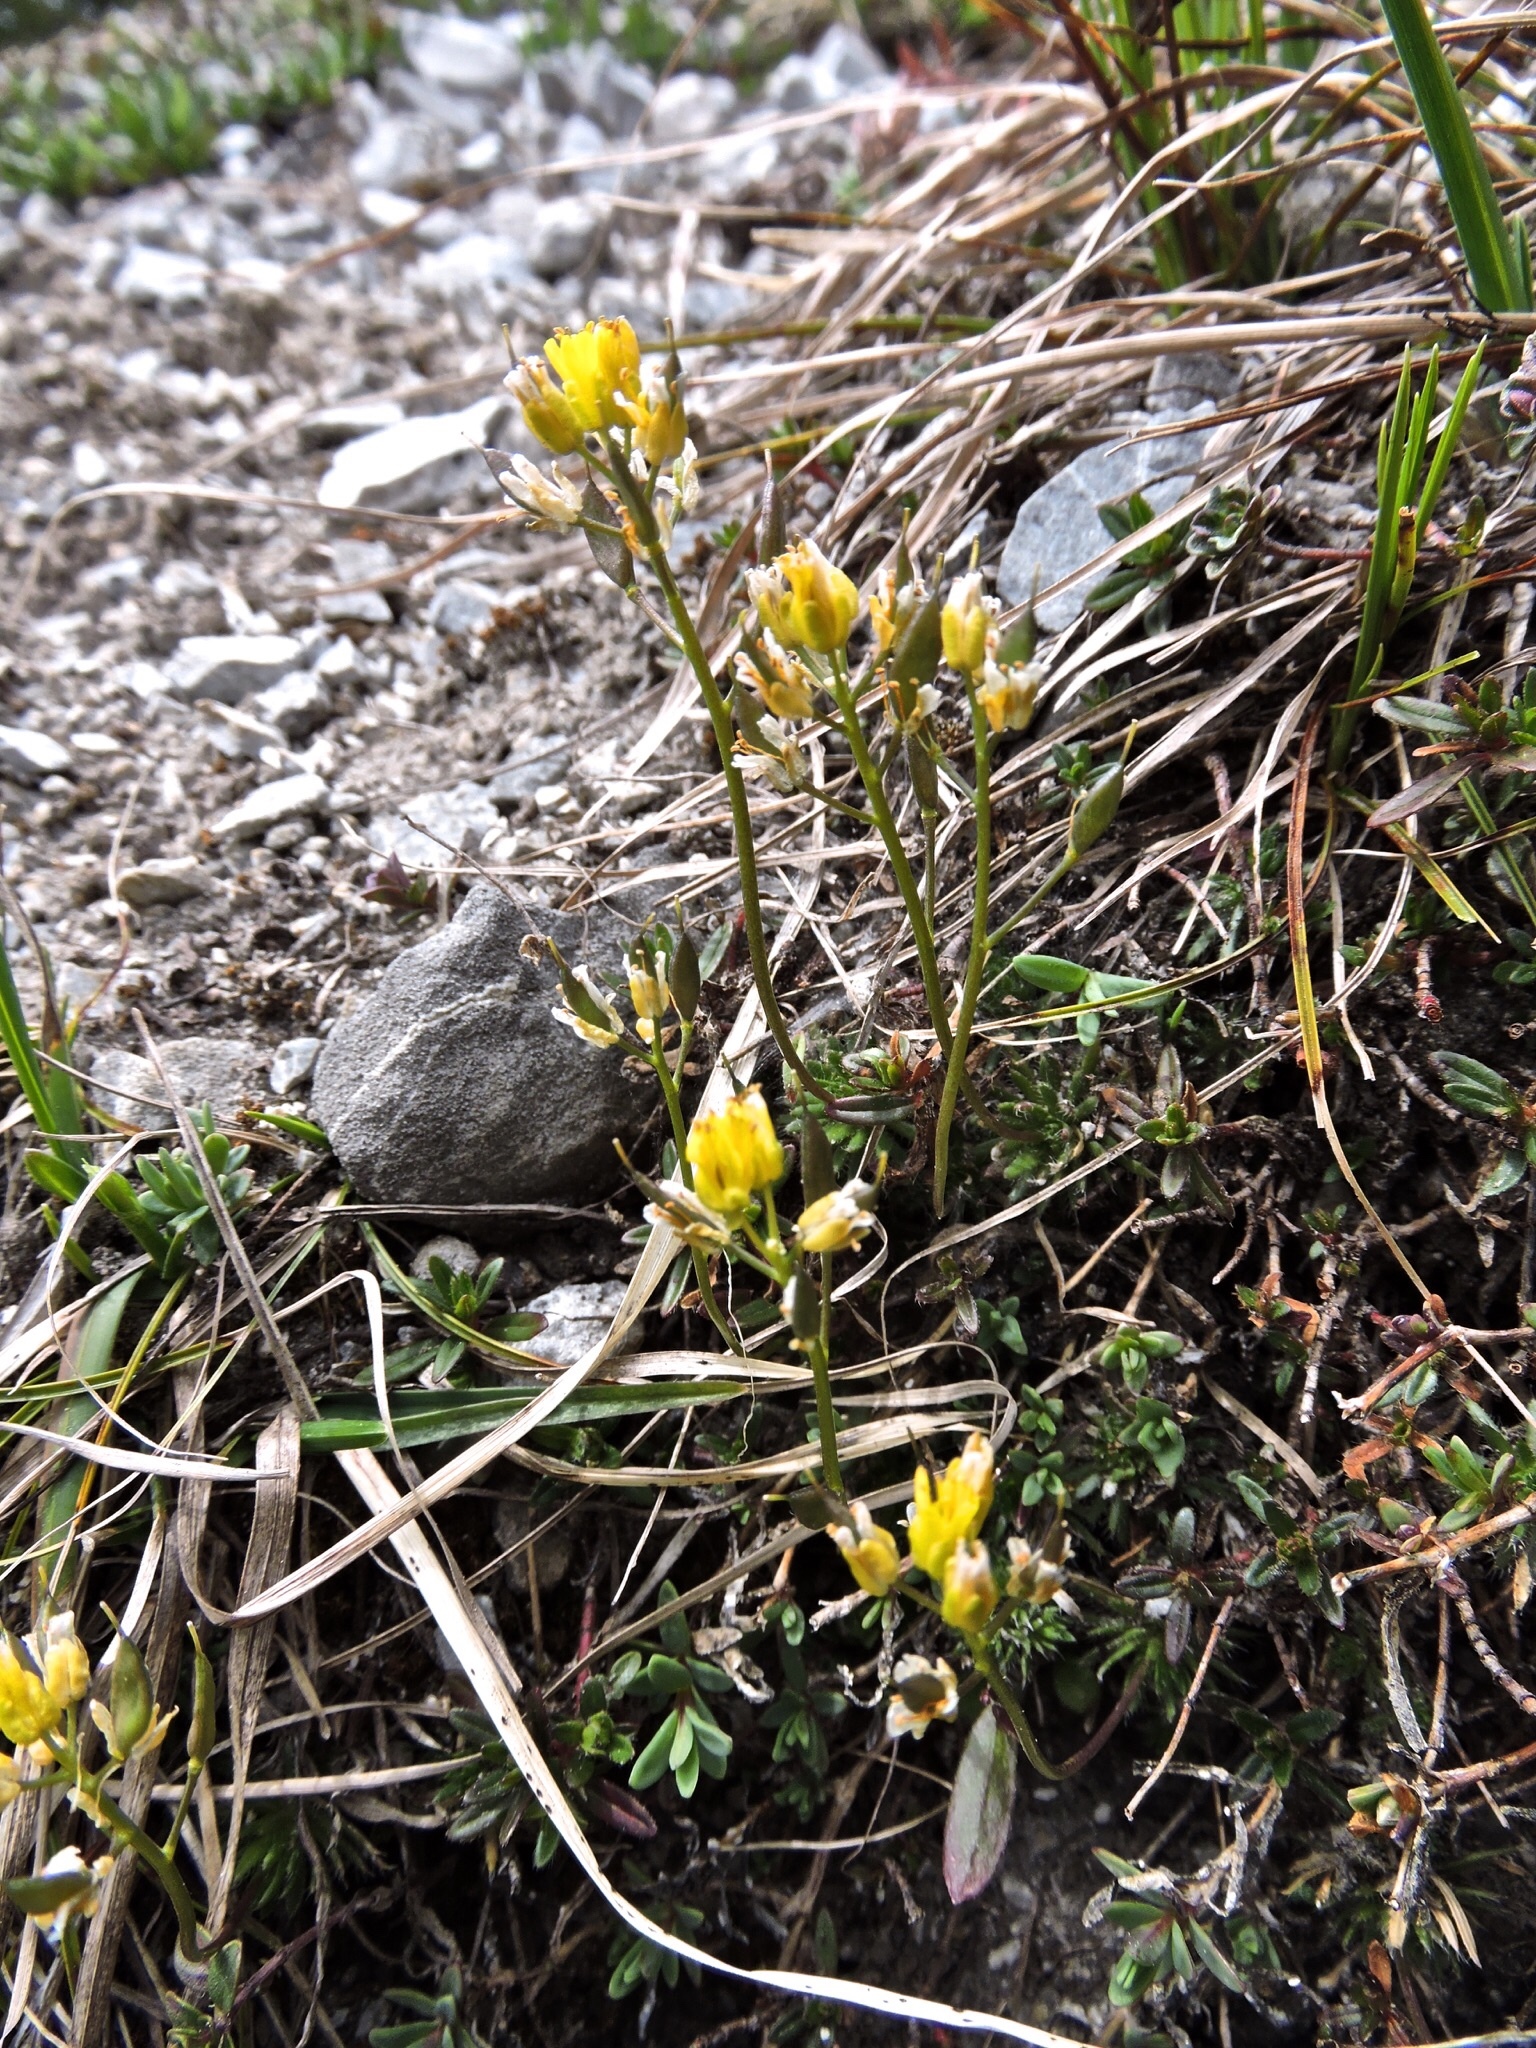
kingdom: Plantae
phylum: Tracheophyta
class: Magnoliopsida
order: Brassicales
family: Brassicaceae
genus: Draba
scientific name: Draba aizoides
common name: Yellow whitlowgrass
